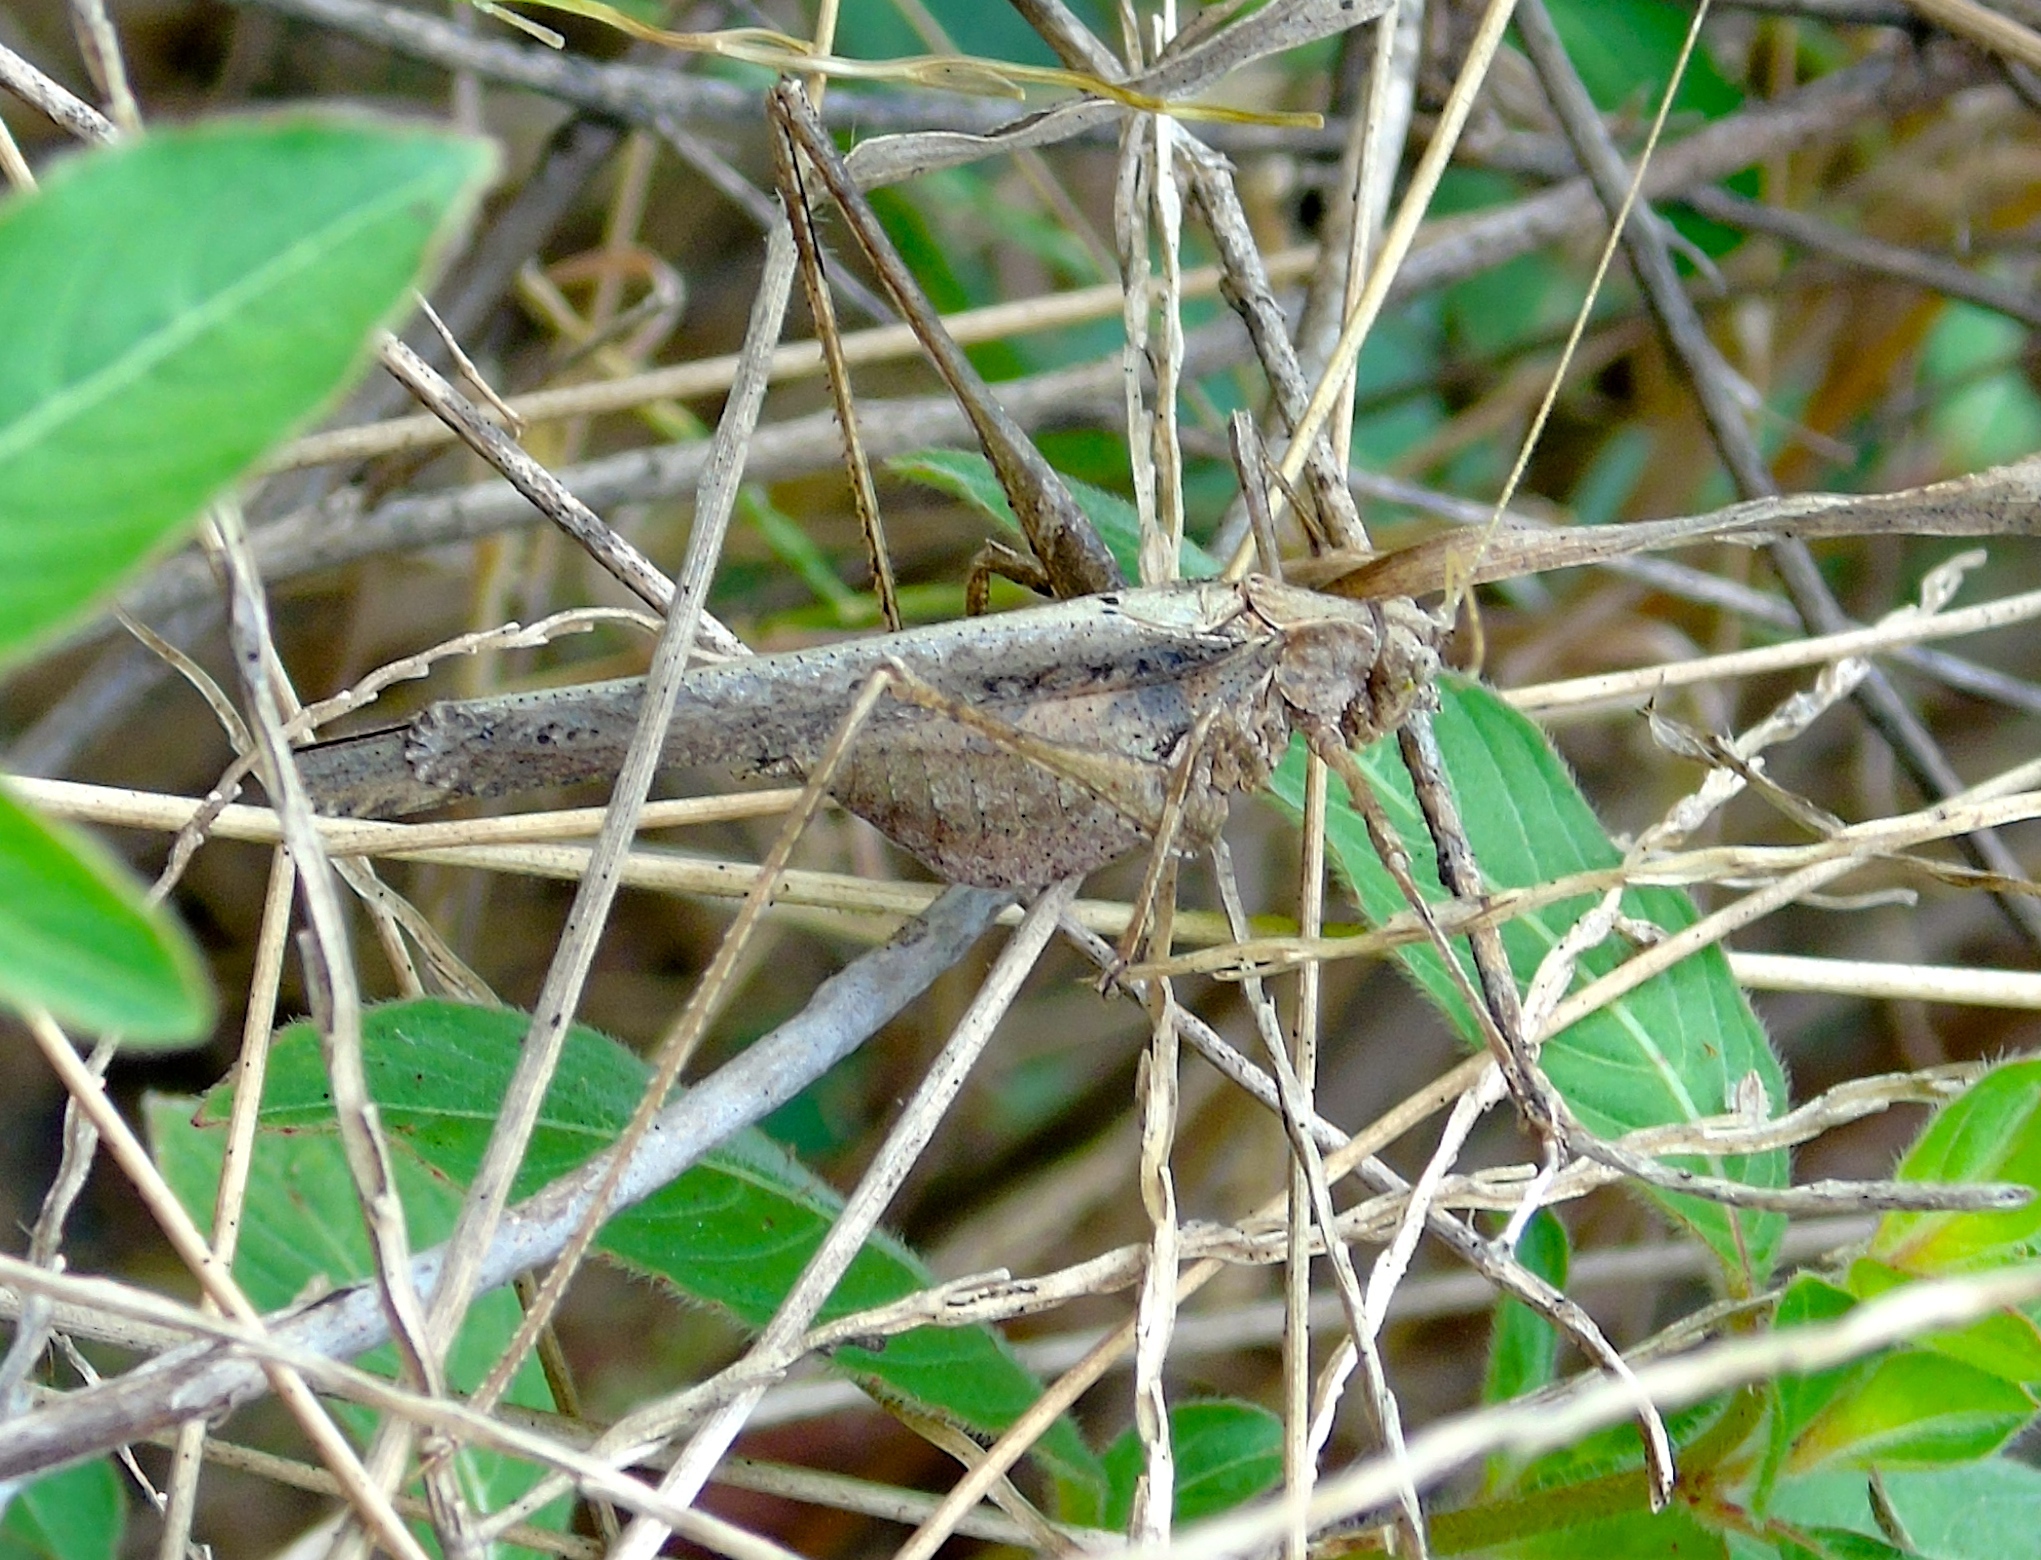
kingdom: Animalia
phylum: Arthropoda
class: Insecta
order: Orthoptera
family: Tettigoniidae
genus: Insara
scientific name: Insara
